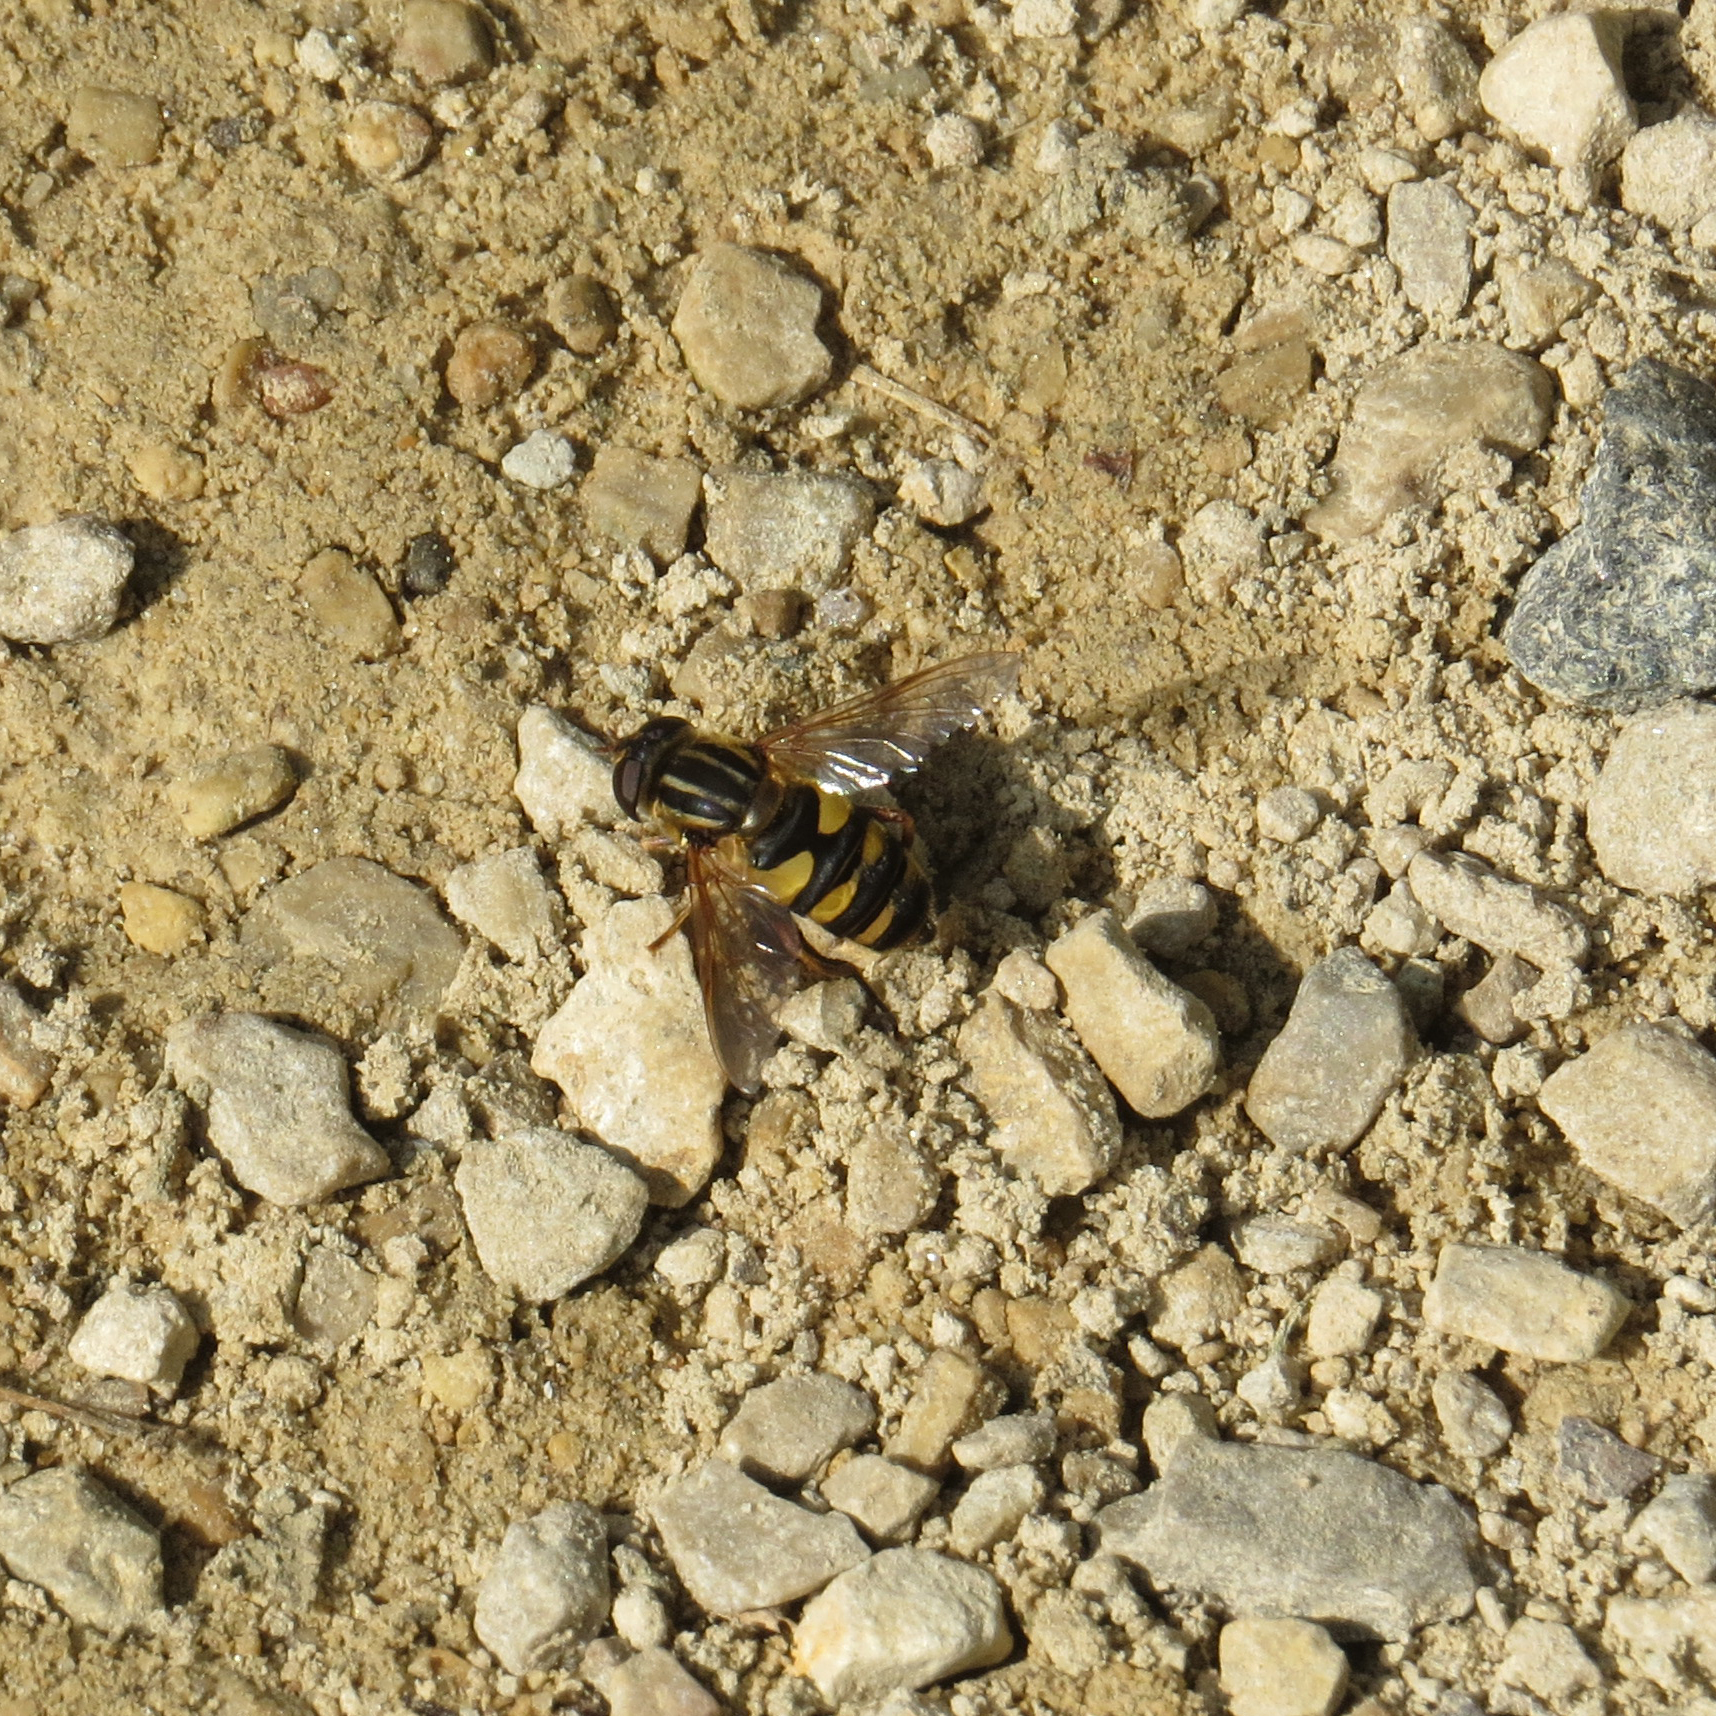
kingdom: Animalia
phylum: Arthropoda
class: Insecta
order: Diptera
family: Syrphidae
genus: Helophilus
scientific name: Helophilus fasciatus
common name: Narrow-headed marsh fly
